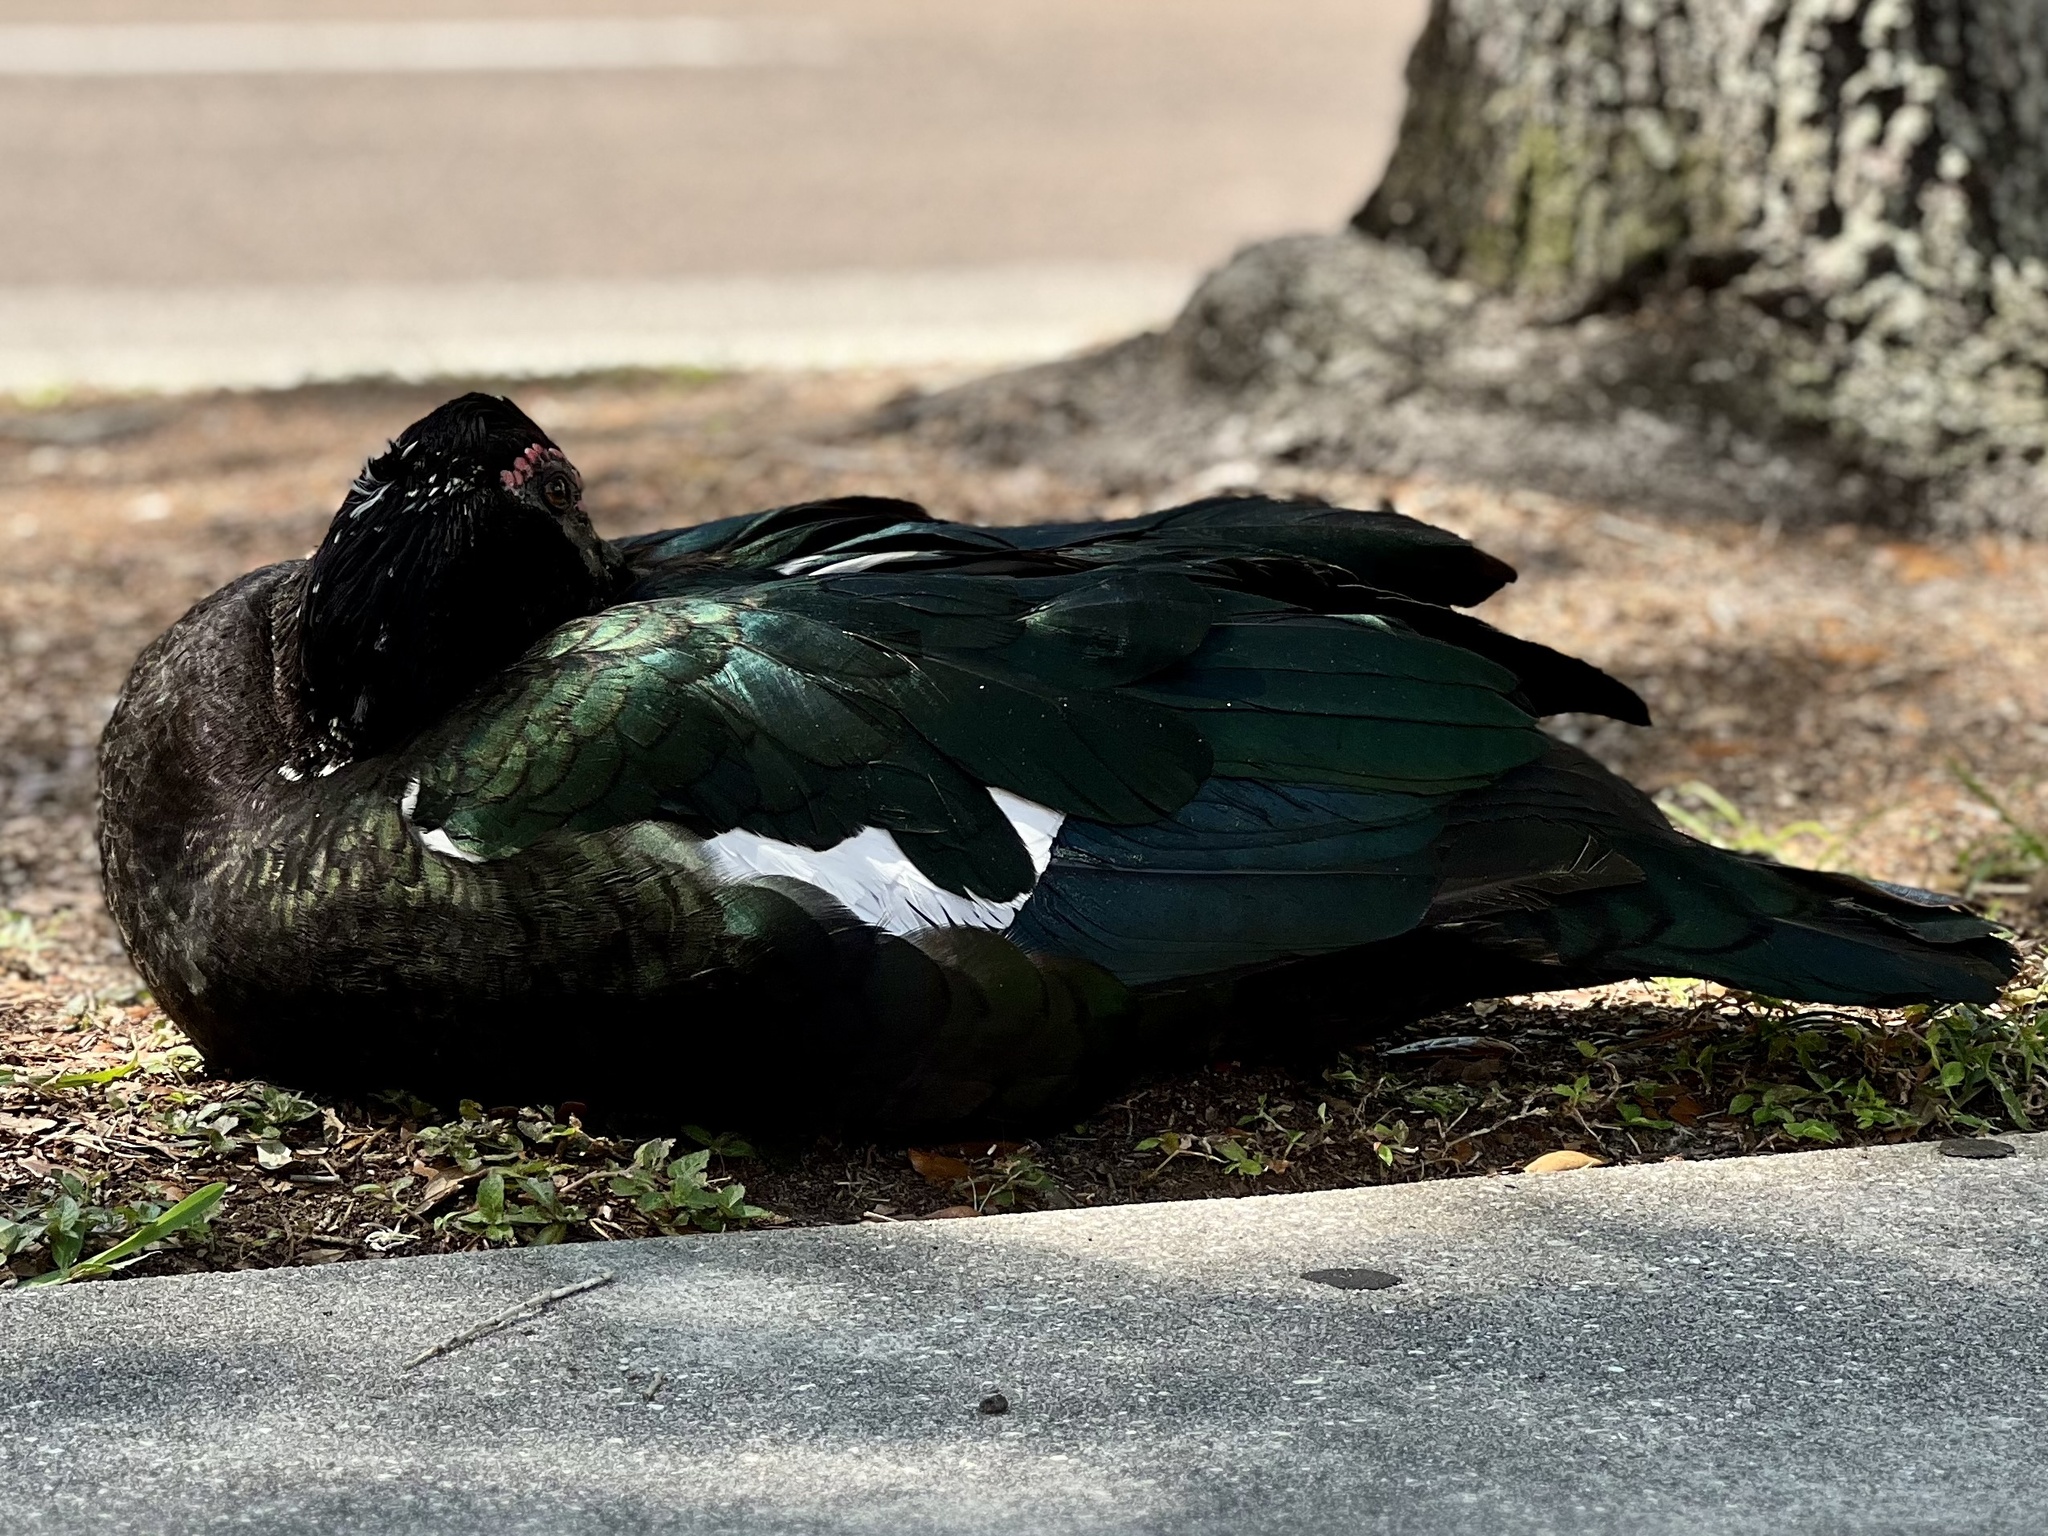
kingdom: Animalia
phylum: Chordata
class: Aves
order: Anseriformes
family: Anatidae
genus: Cairina
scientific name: Cairina moschata
